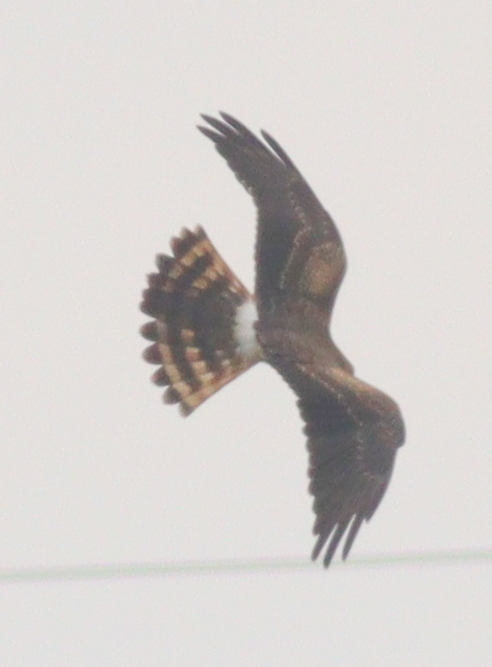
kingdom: Animalia
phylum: Chordata
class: Aves
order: Accipitriformes
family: Accipitridae
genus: Circus
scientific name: Circus pygargus
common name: Montagu's harrier
